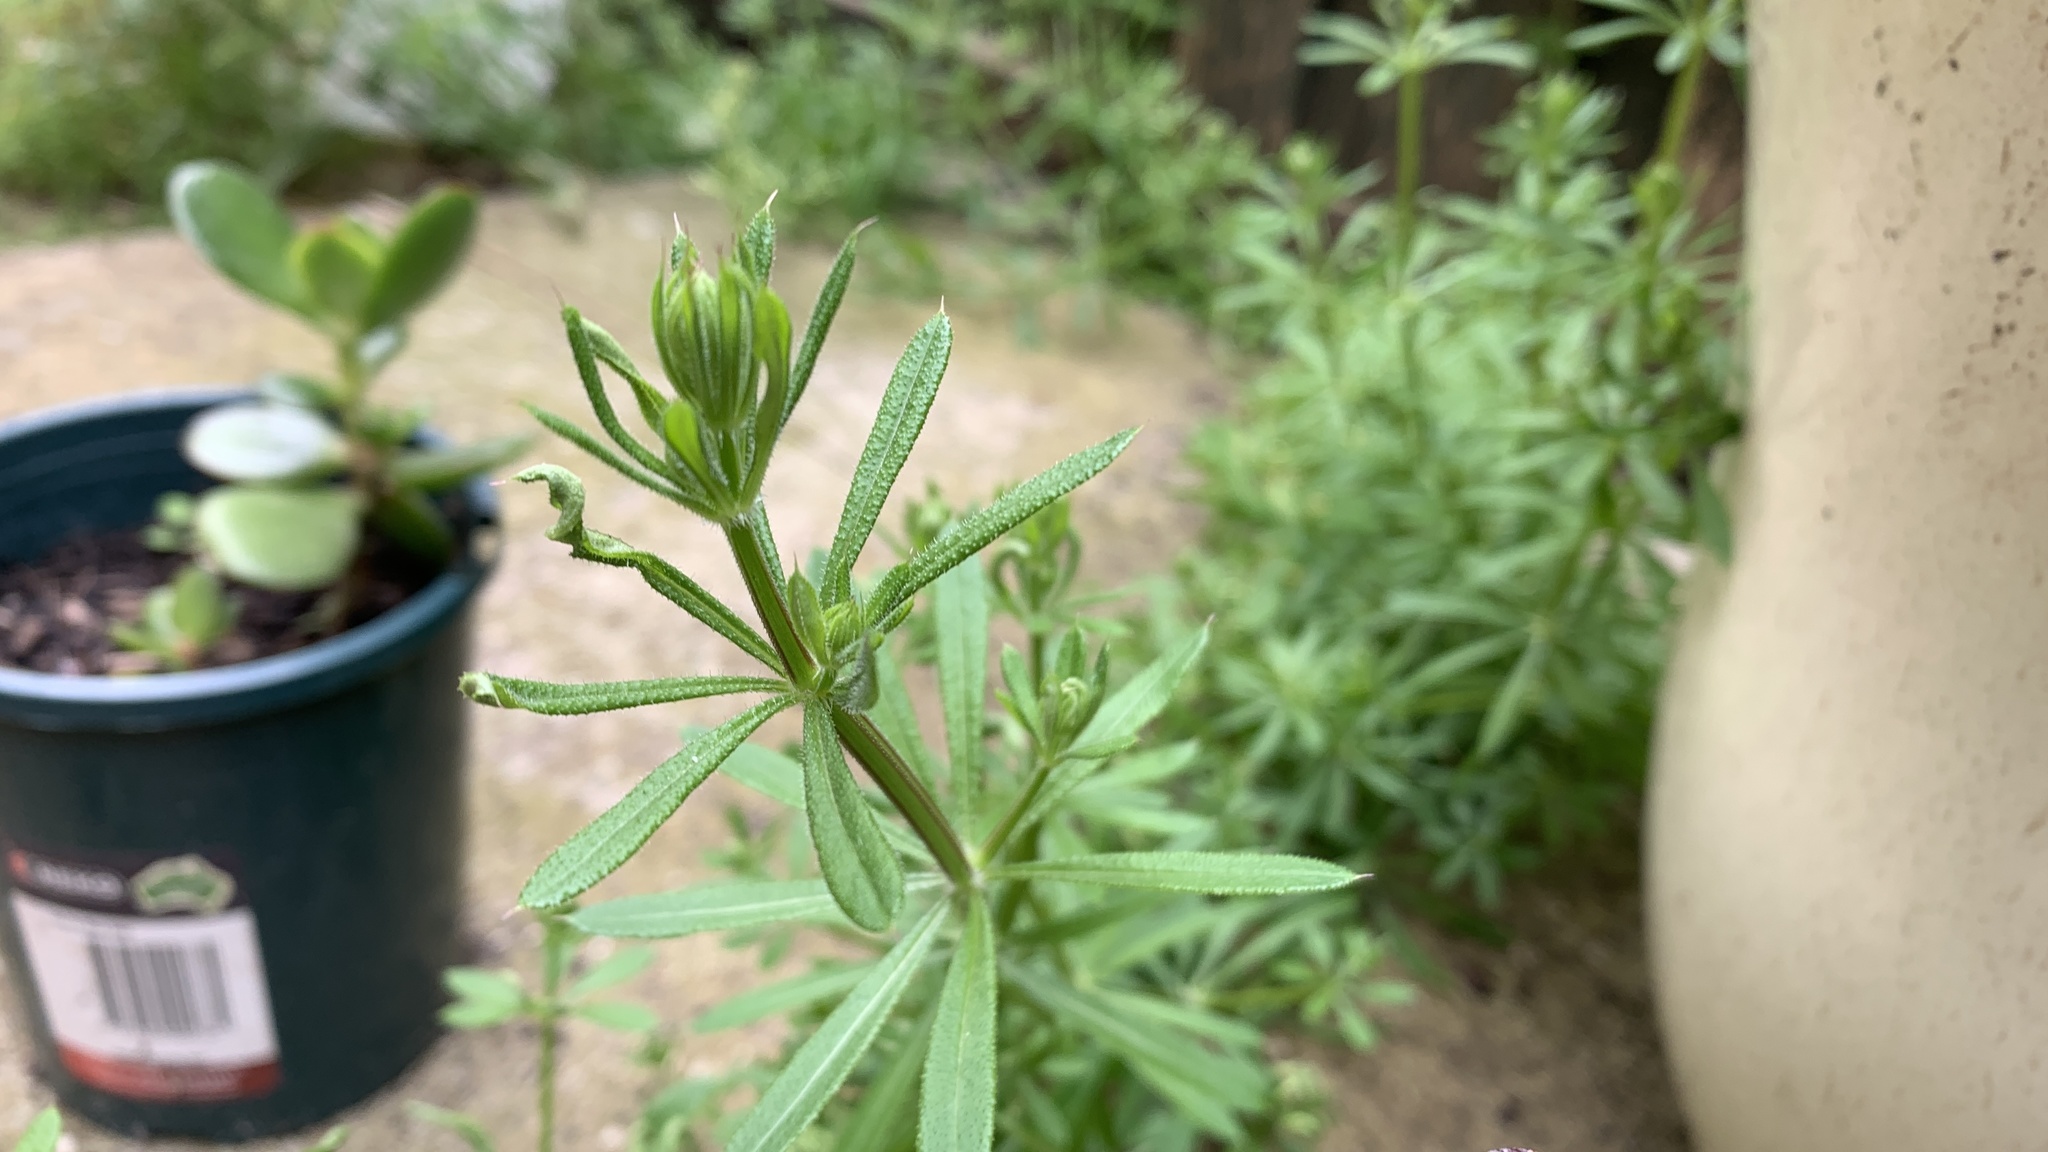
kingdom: Plantae
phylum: Tracheophyta
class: Magnoliopsida
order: Gentianales
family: Rubiaceae
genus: Galium
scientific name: Galium aparine
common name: Cleavers
